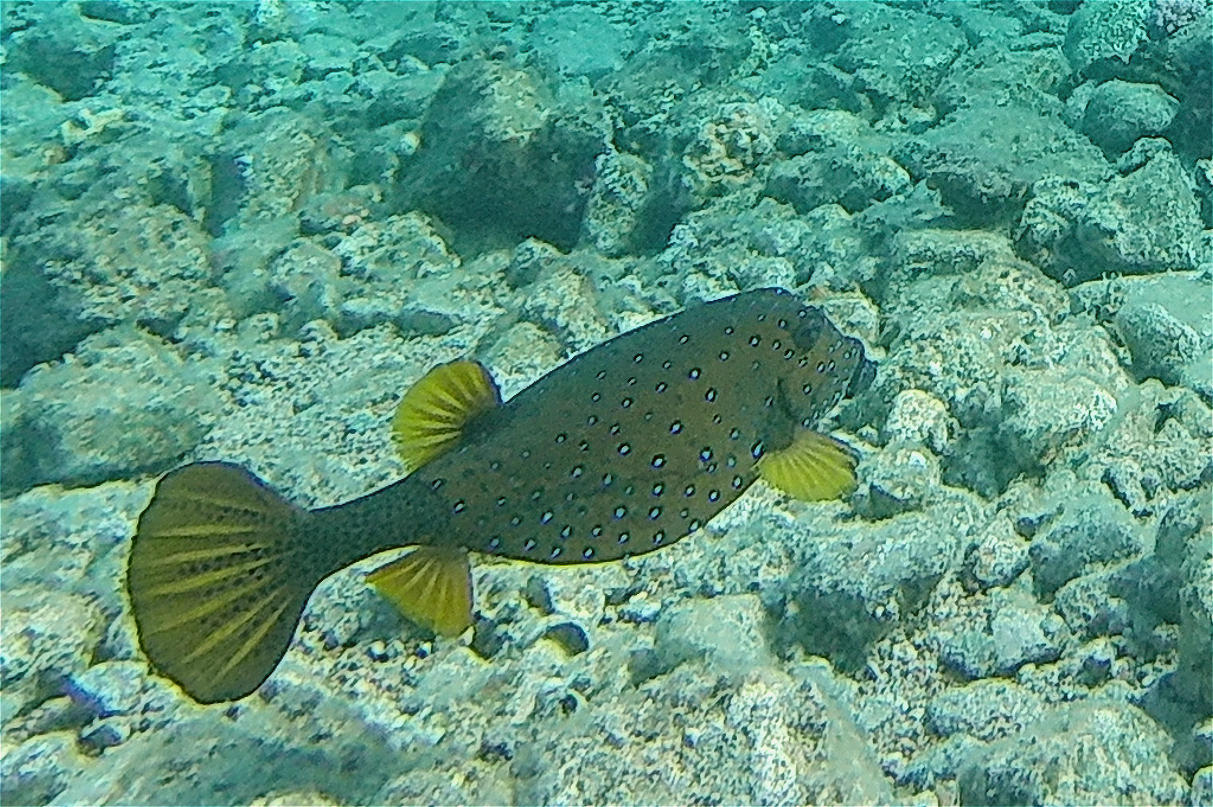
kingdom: Animalia
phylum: Chordata
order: Tetraodontiformes
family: Ostraciidae
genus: Ostracion
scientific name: Ostracion cubicus
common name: Cube trunkfish
